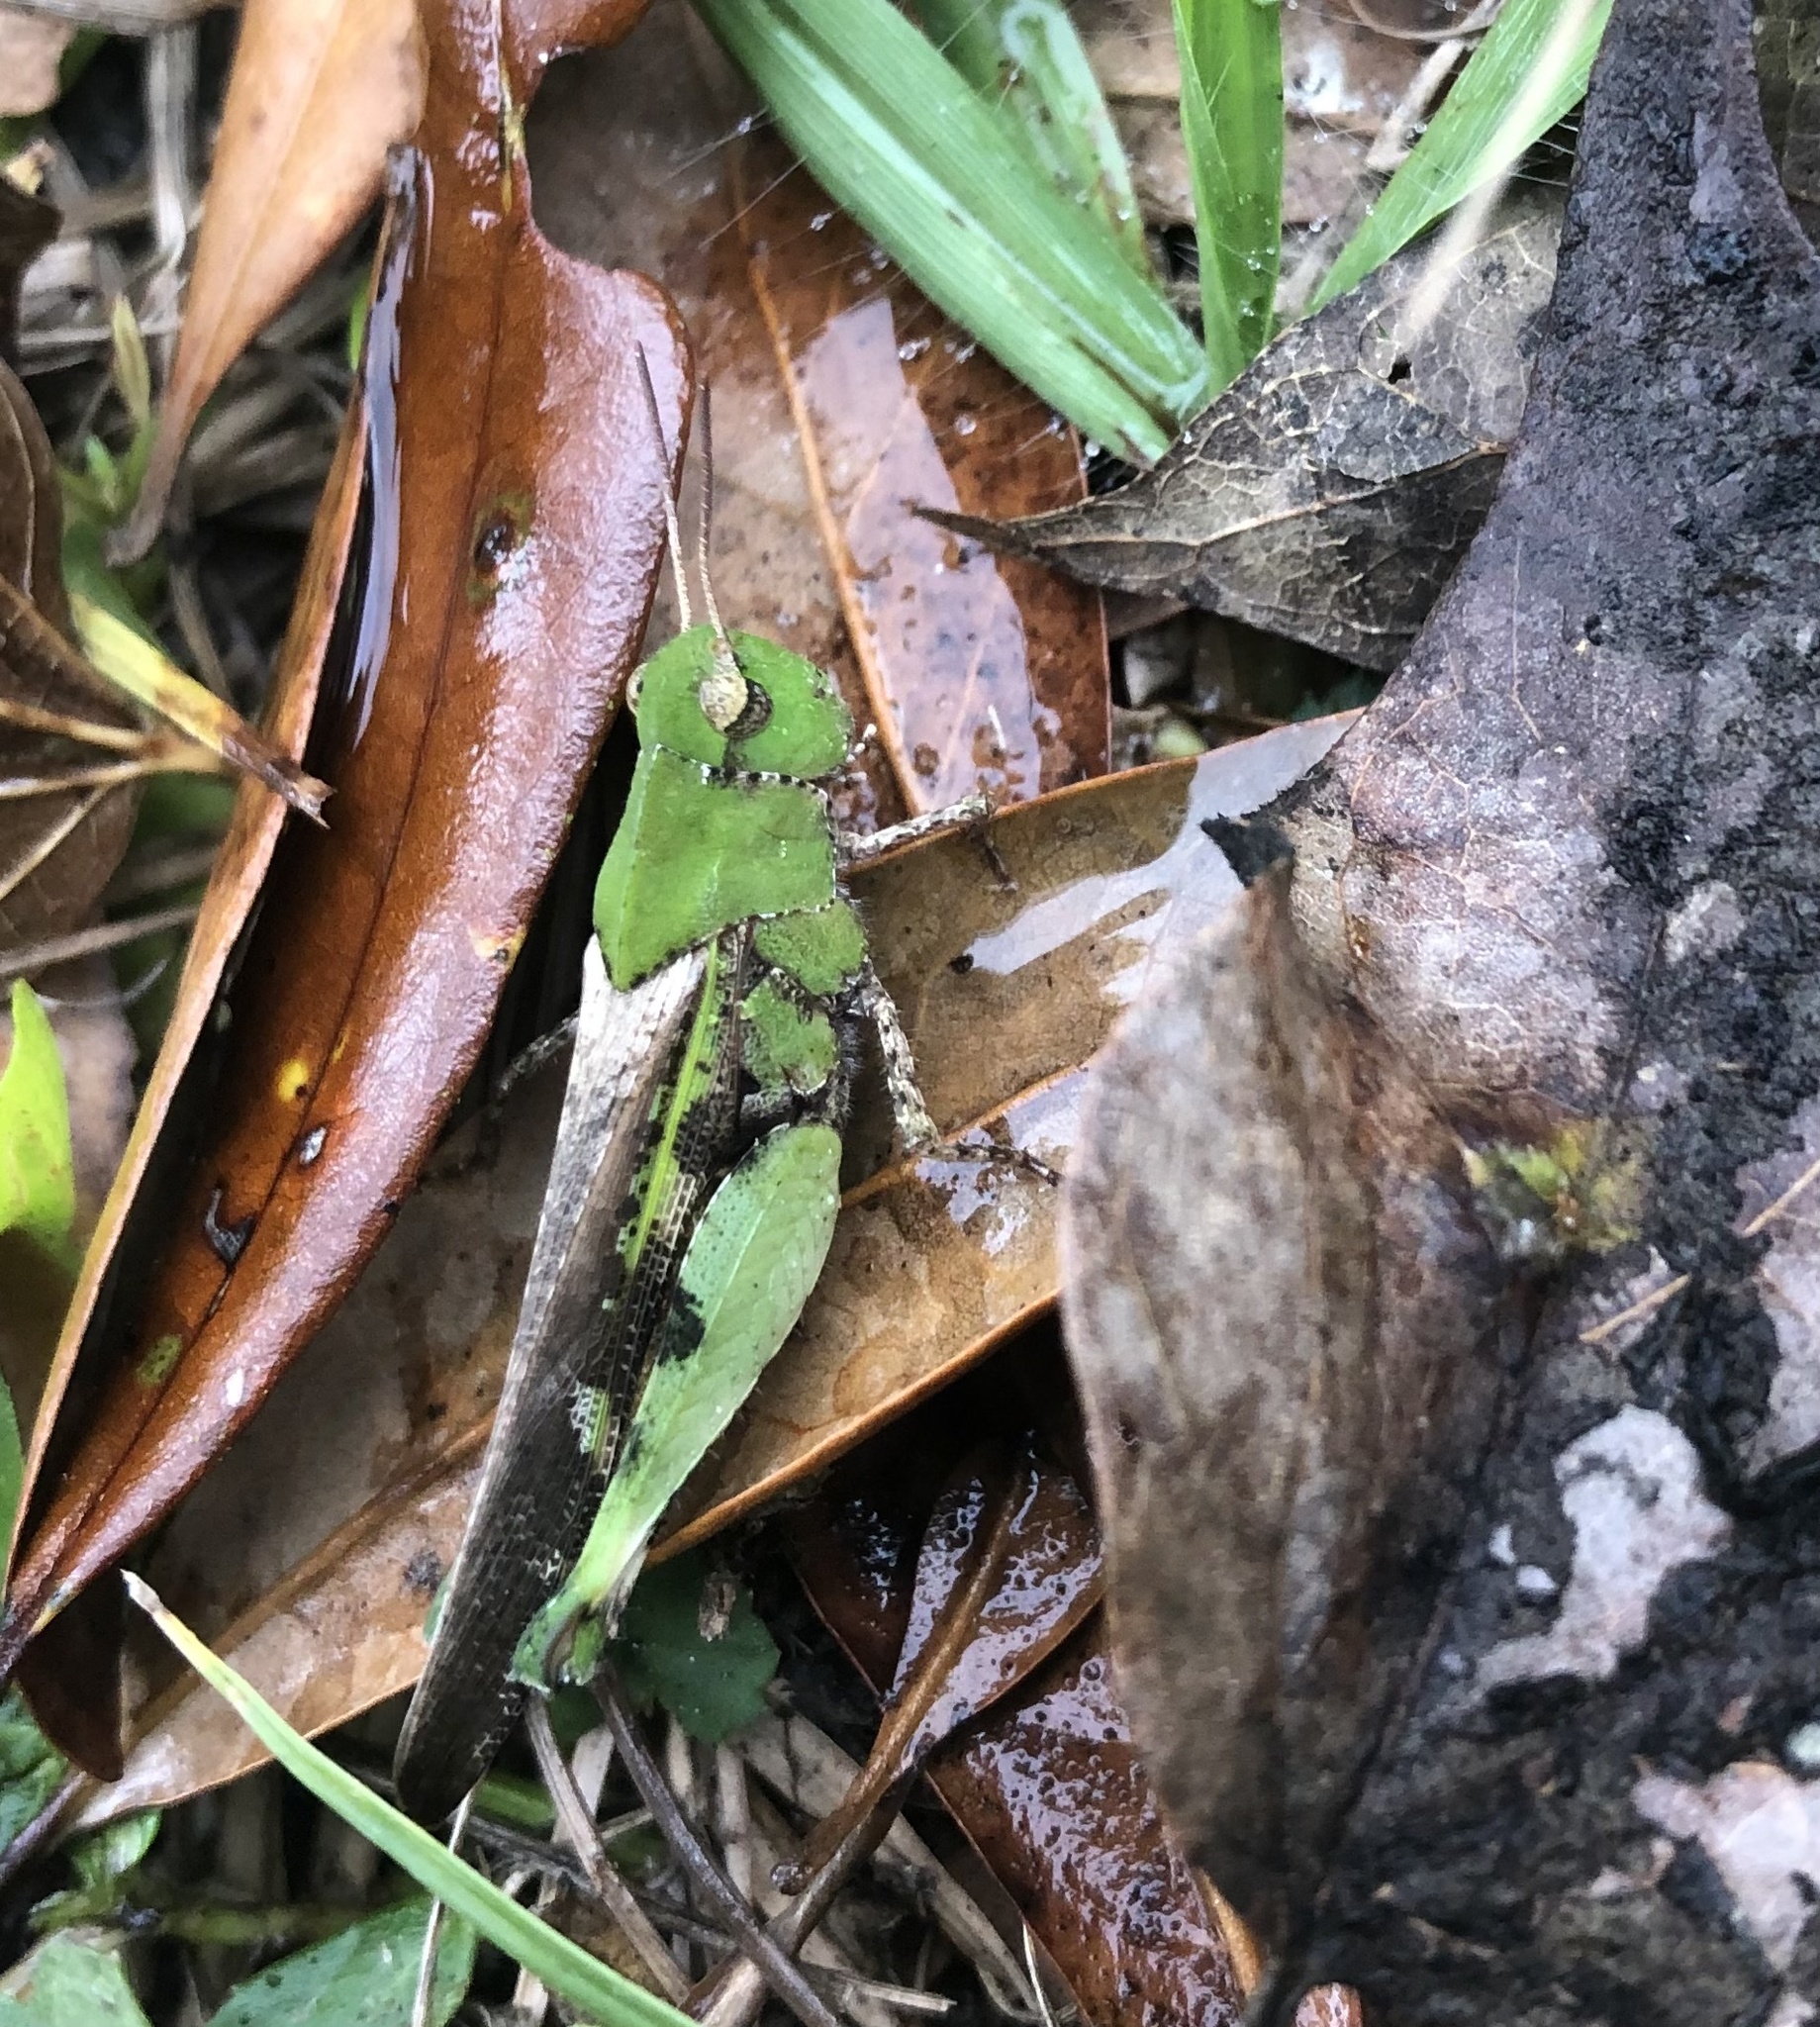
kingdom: Animalia
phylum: Arthropoda
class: Insecta
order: Orthoptera
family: Acrididae
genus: Chortophaga
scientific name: Chortophaga australior
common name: Southern green-striped grasshopper
